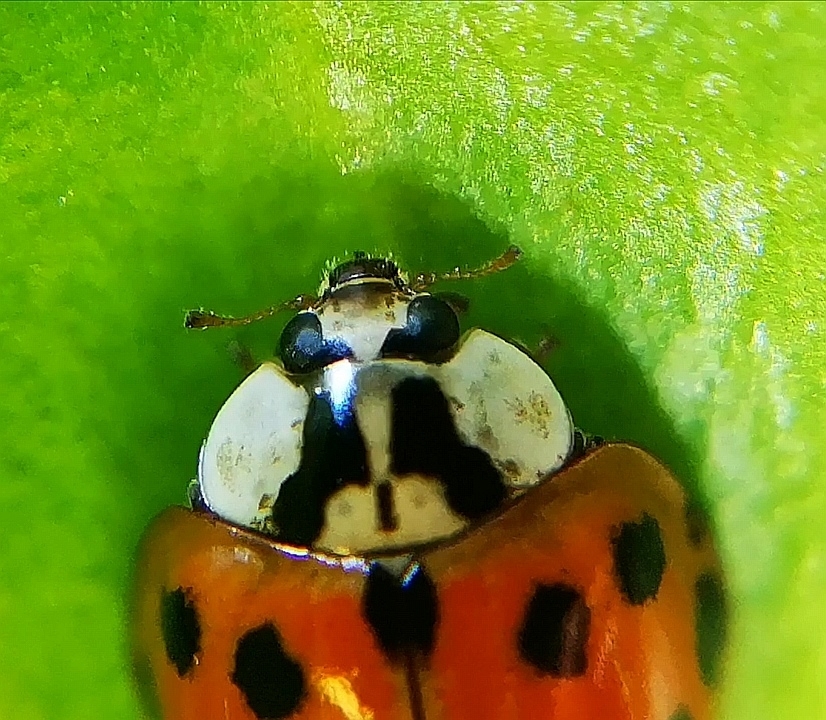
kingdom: Animalia
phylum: Arthropoda
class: Insecta
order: Coleoptera
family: Coccinellidae
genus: Harmonia
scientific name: Harmonia axyridis
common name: Harlequin ladybird
